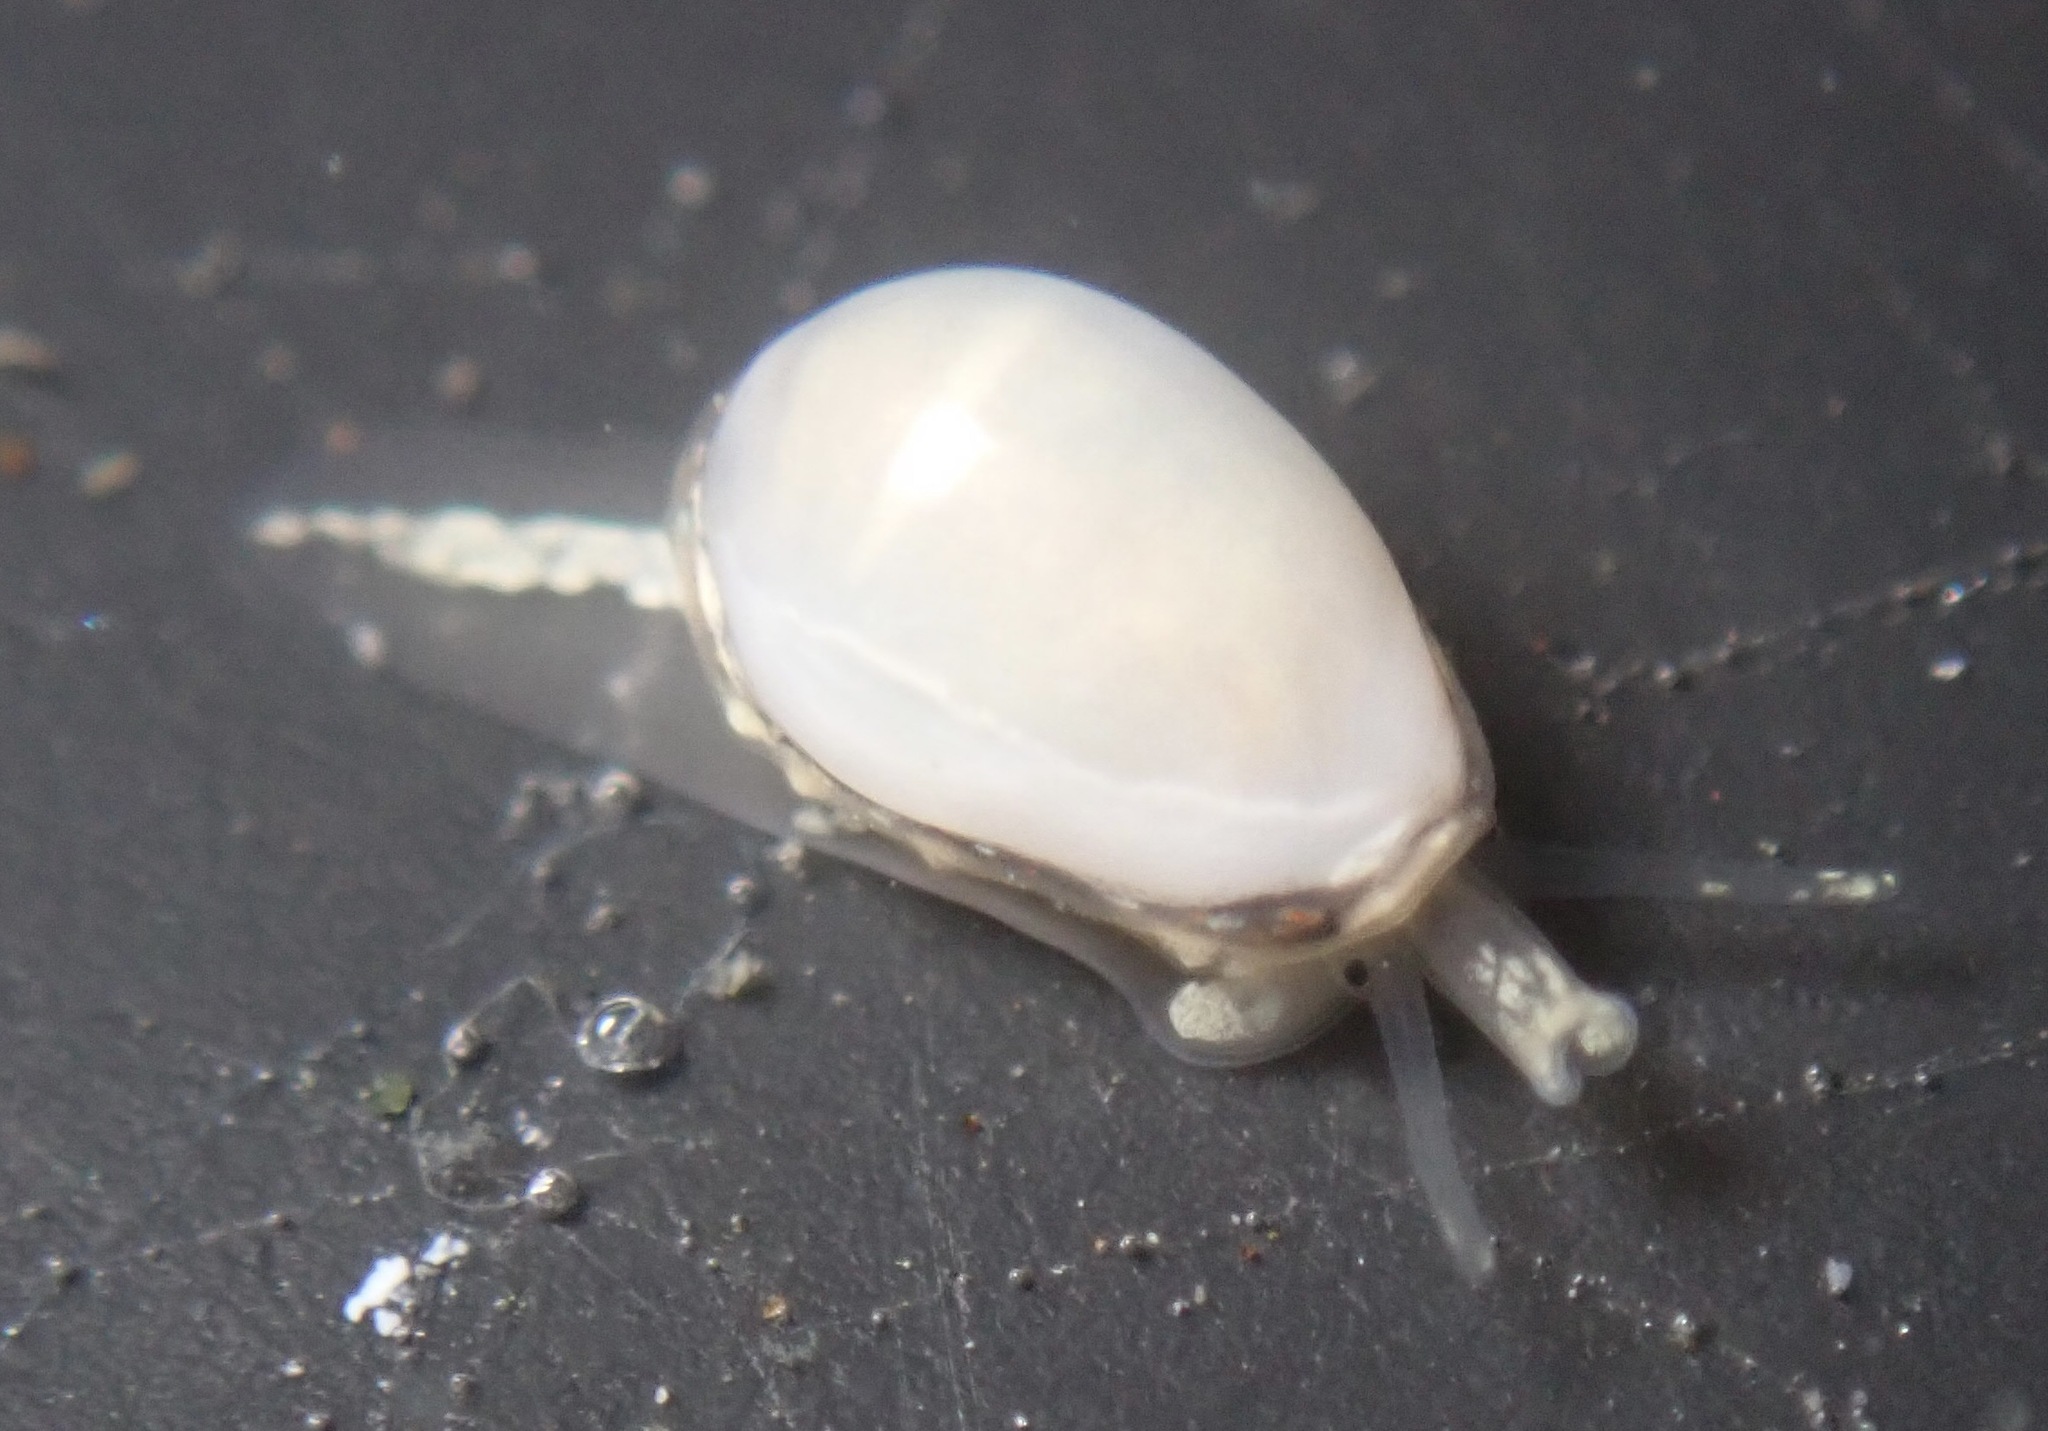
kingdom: Animalia
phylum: Mollusca
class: Gastropoda
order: Neogastropoda
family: Granulinidae
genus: Granulina
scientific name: Granulina margaritula
